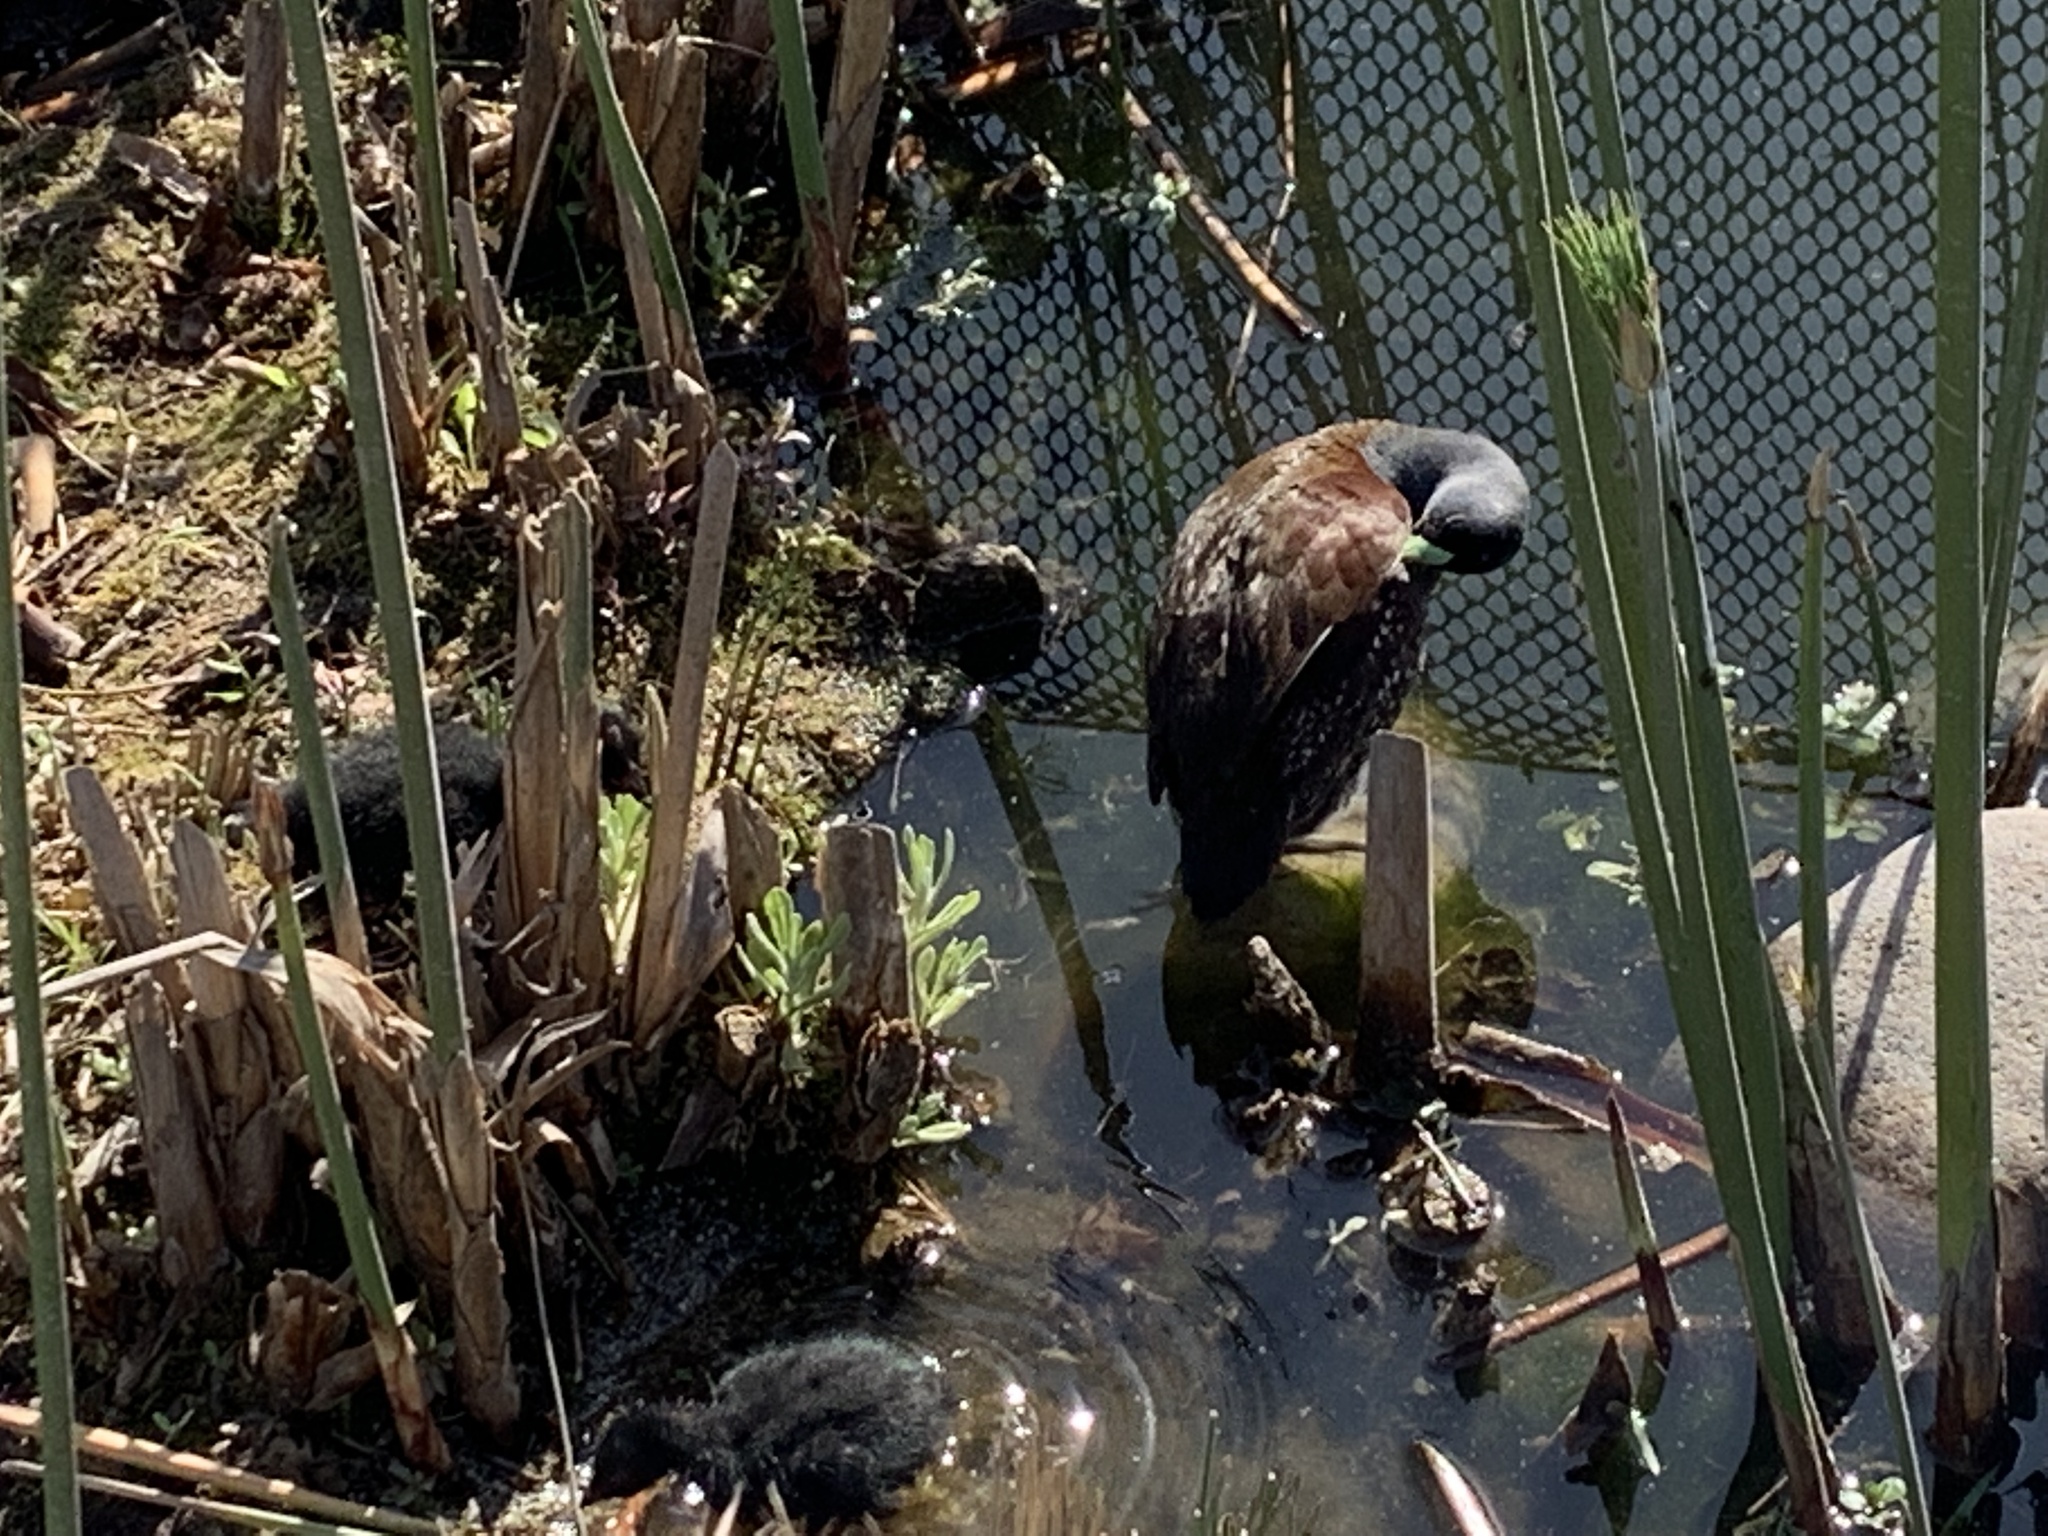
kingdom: Animalia
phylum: Chordata
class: Aves
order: Gruiformes
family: Rallidae
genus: Gallinula
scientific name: Gallinula melanops
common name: Spot-flanked gallinule
